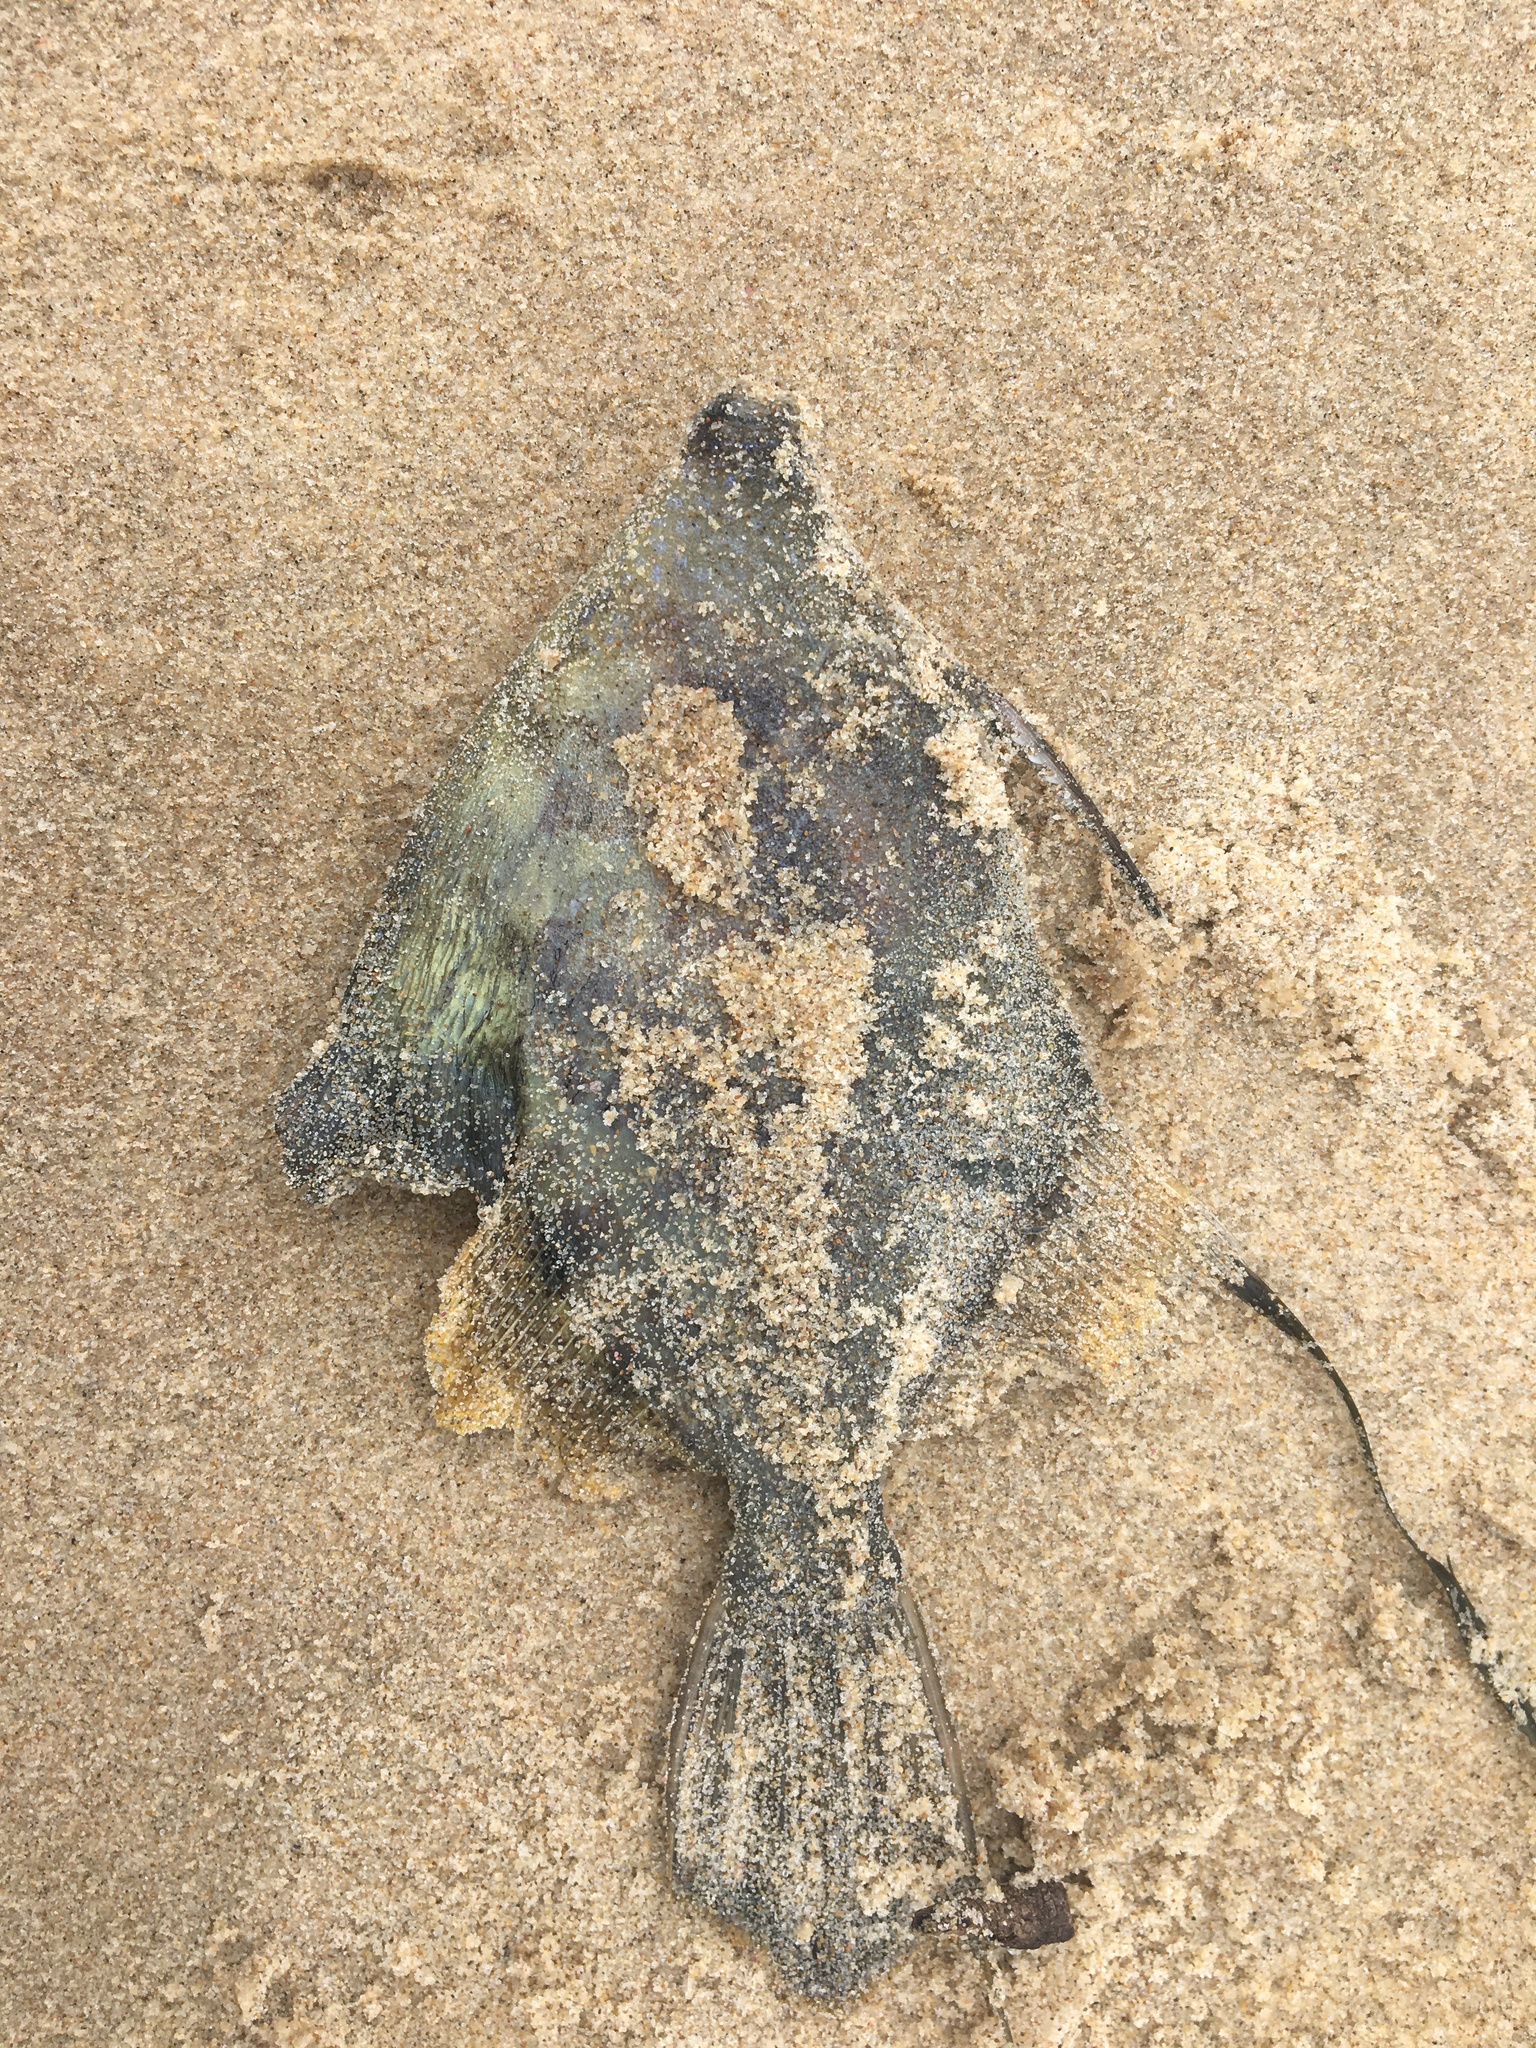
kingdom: Animalia
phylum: Chordata
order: Tetraodontiformes
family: Monacanthidae
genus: Monacanthus
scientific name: Monacanthus chinensis
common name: Centreboard leatherjacket
